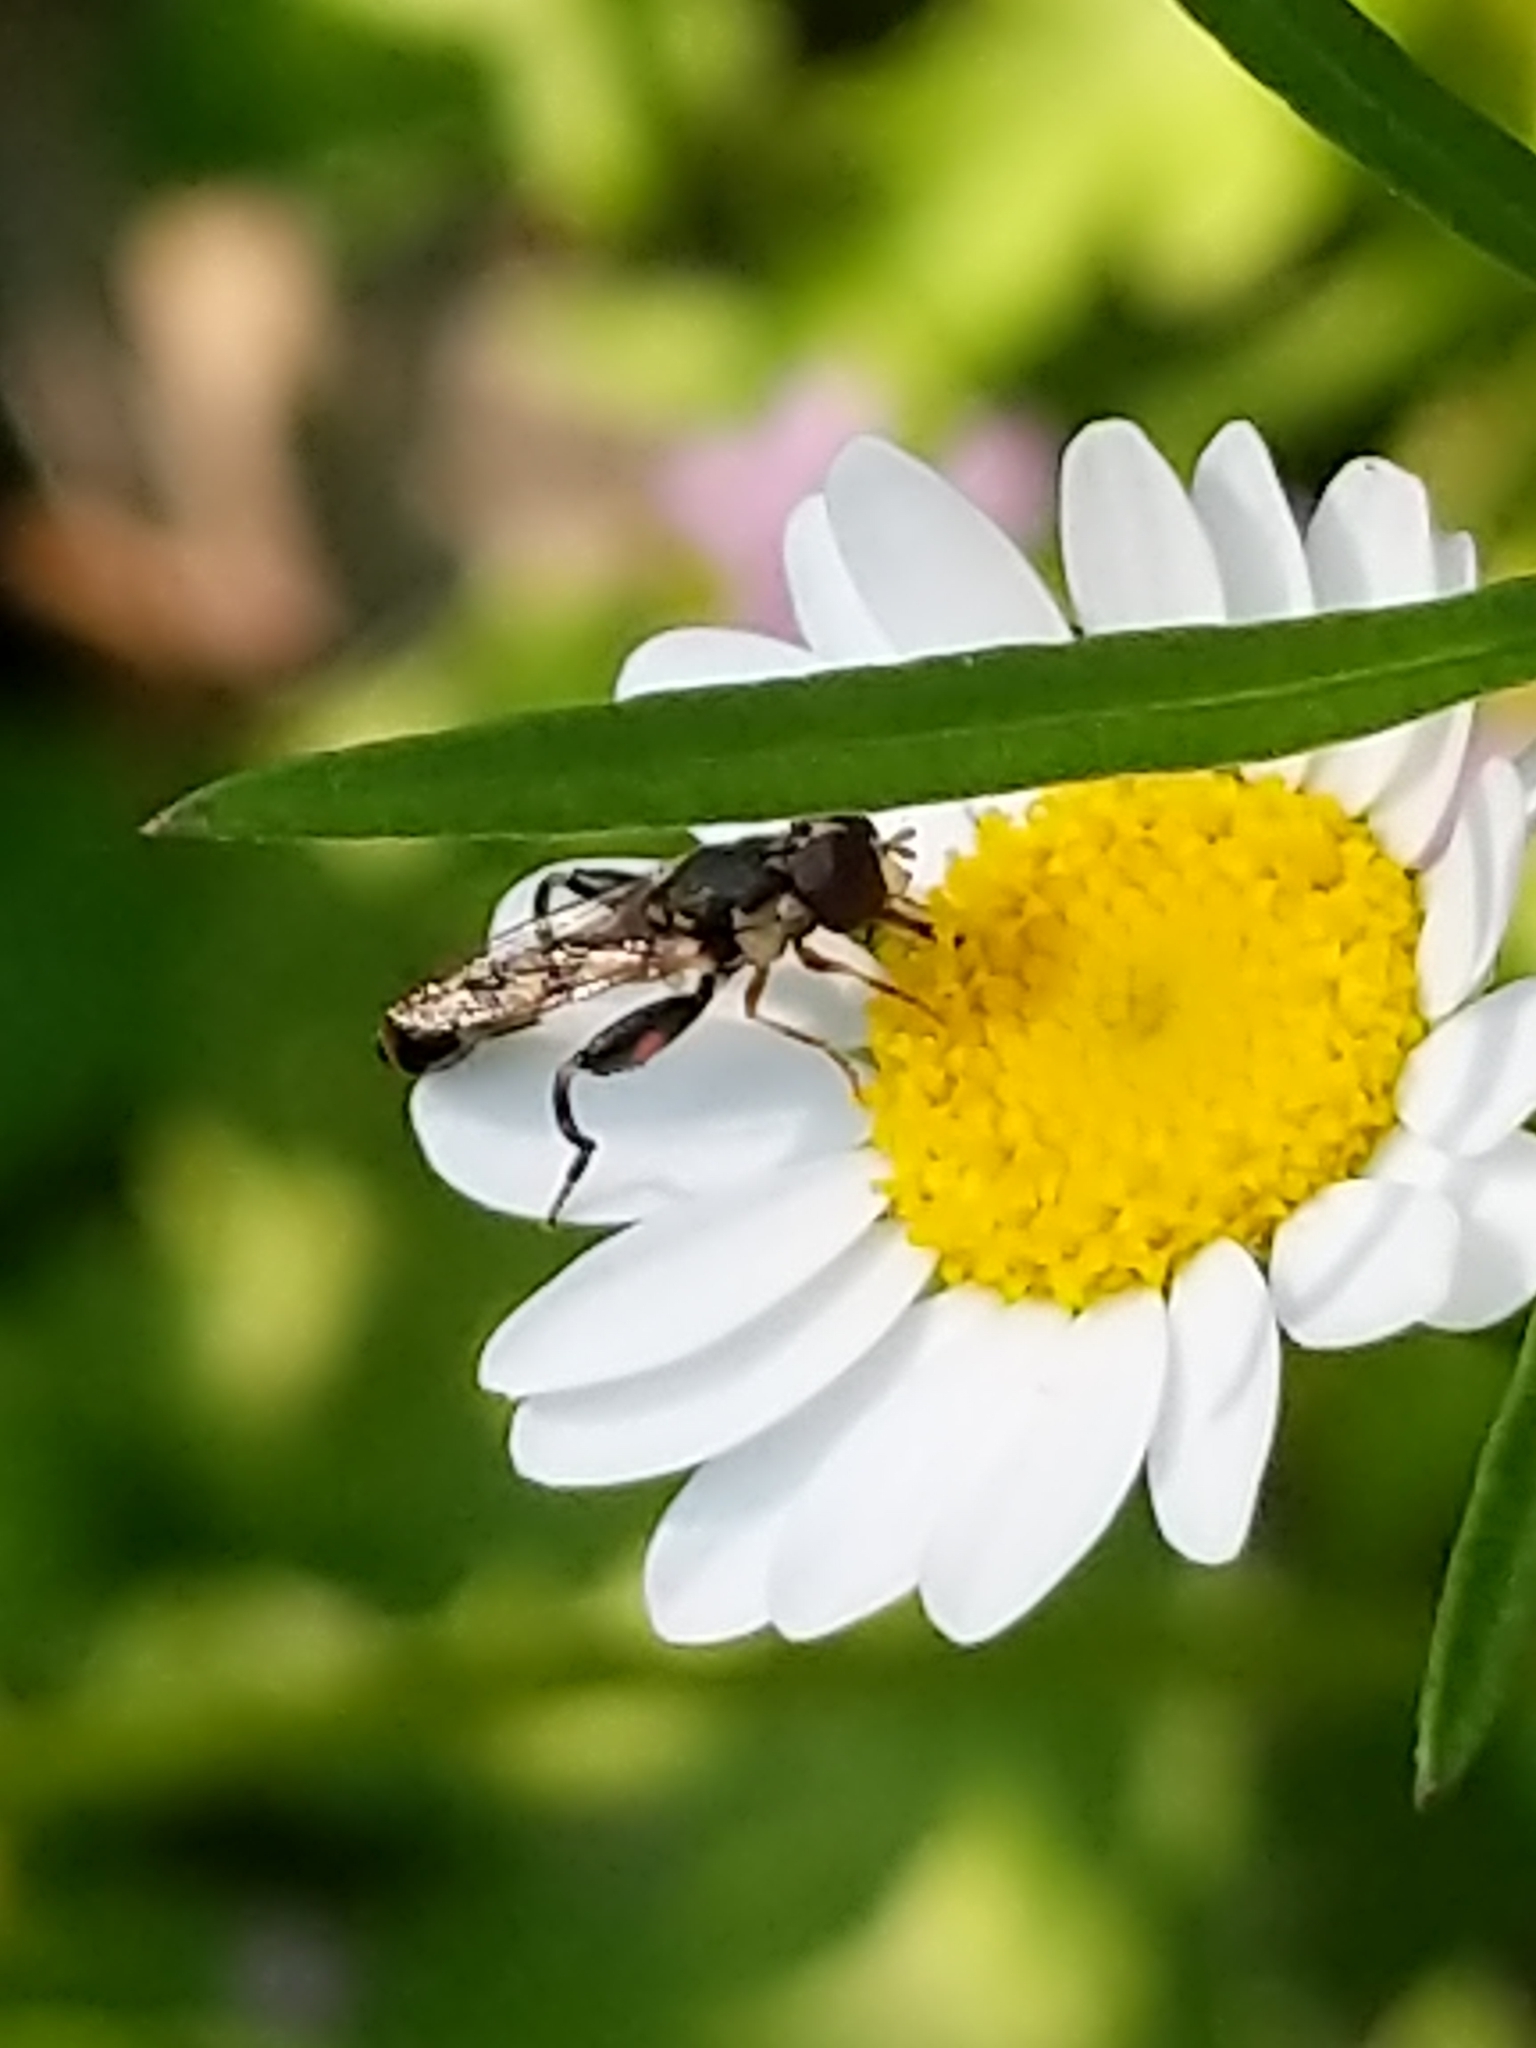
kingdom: Animalia
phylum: Arthropoda
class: Insecta
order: Diptera
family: Syrphidae
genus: Syritta
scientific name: Syritta pipiens
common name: Hover fly
